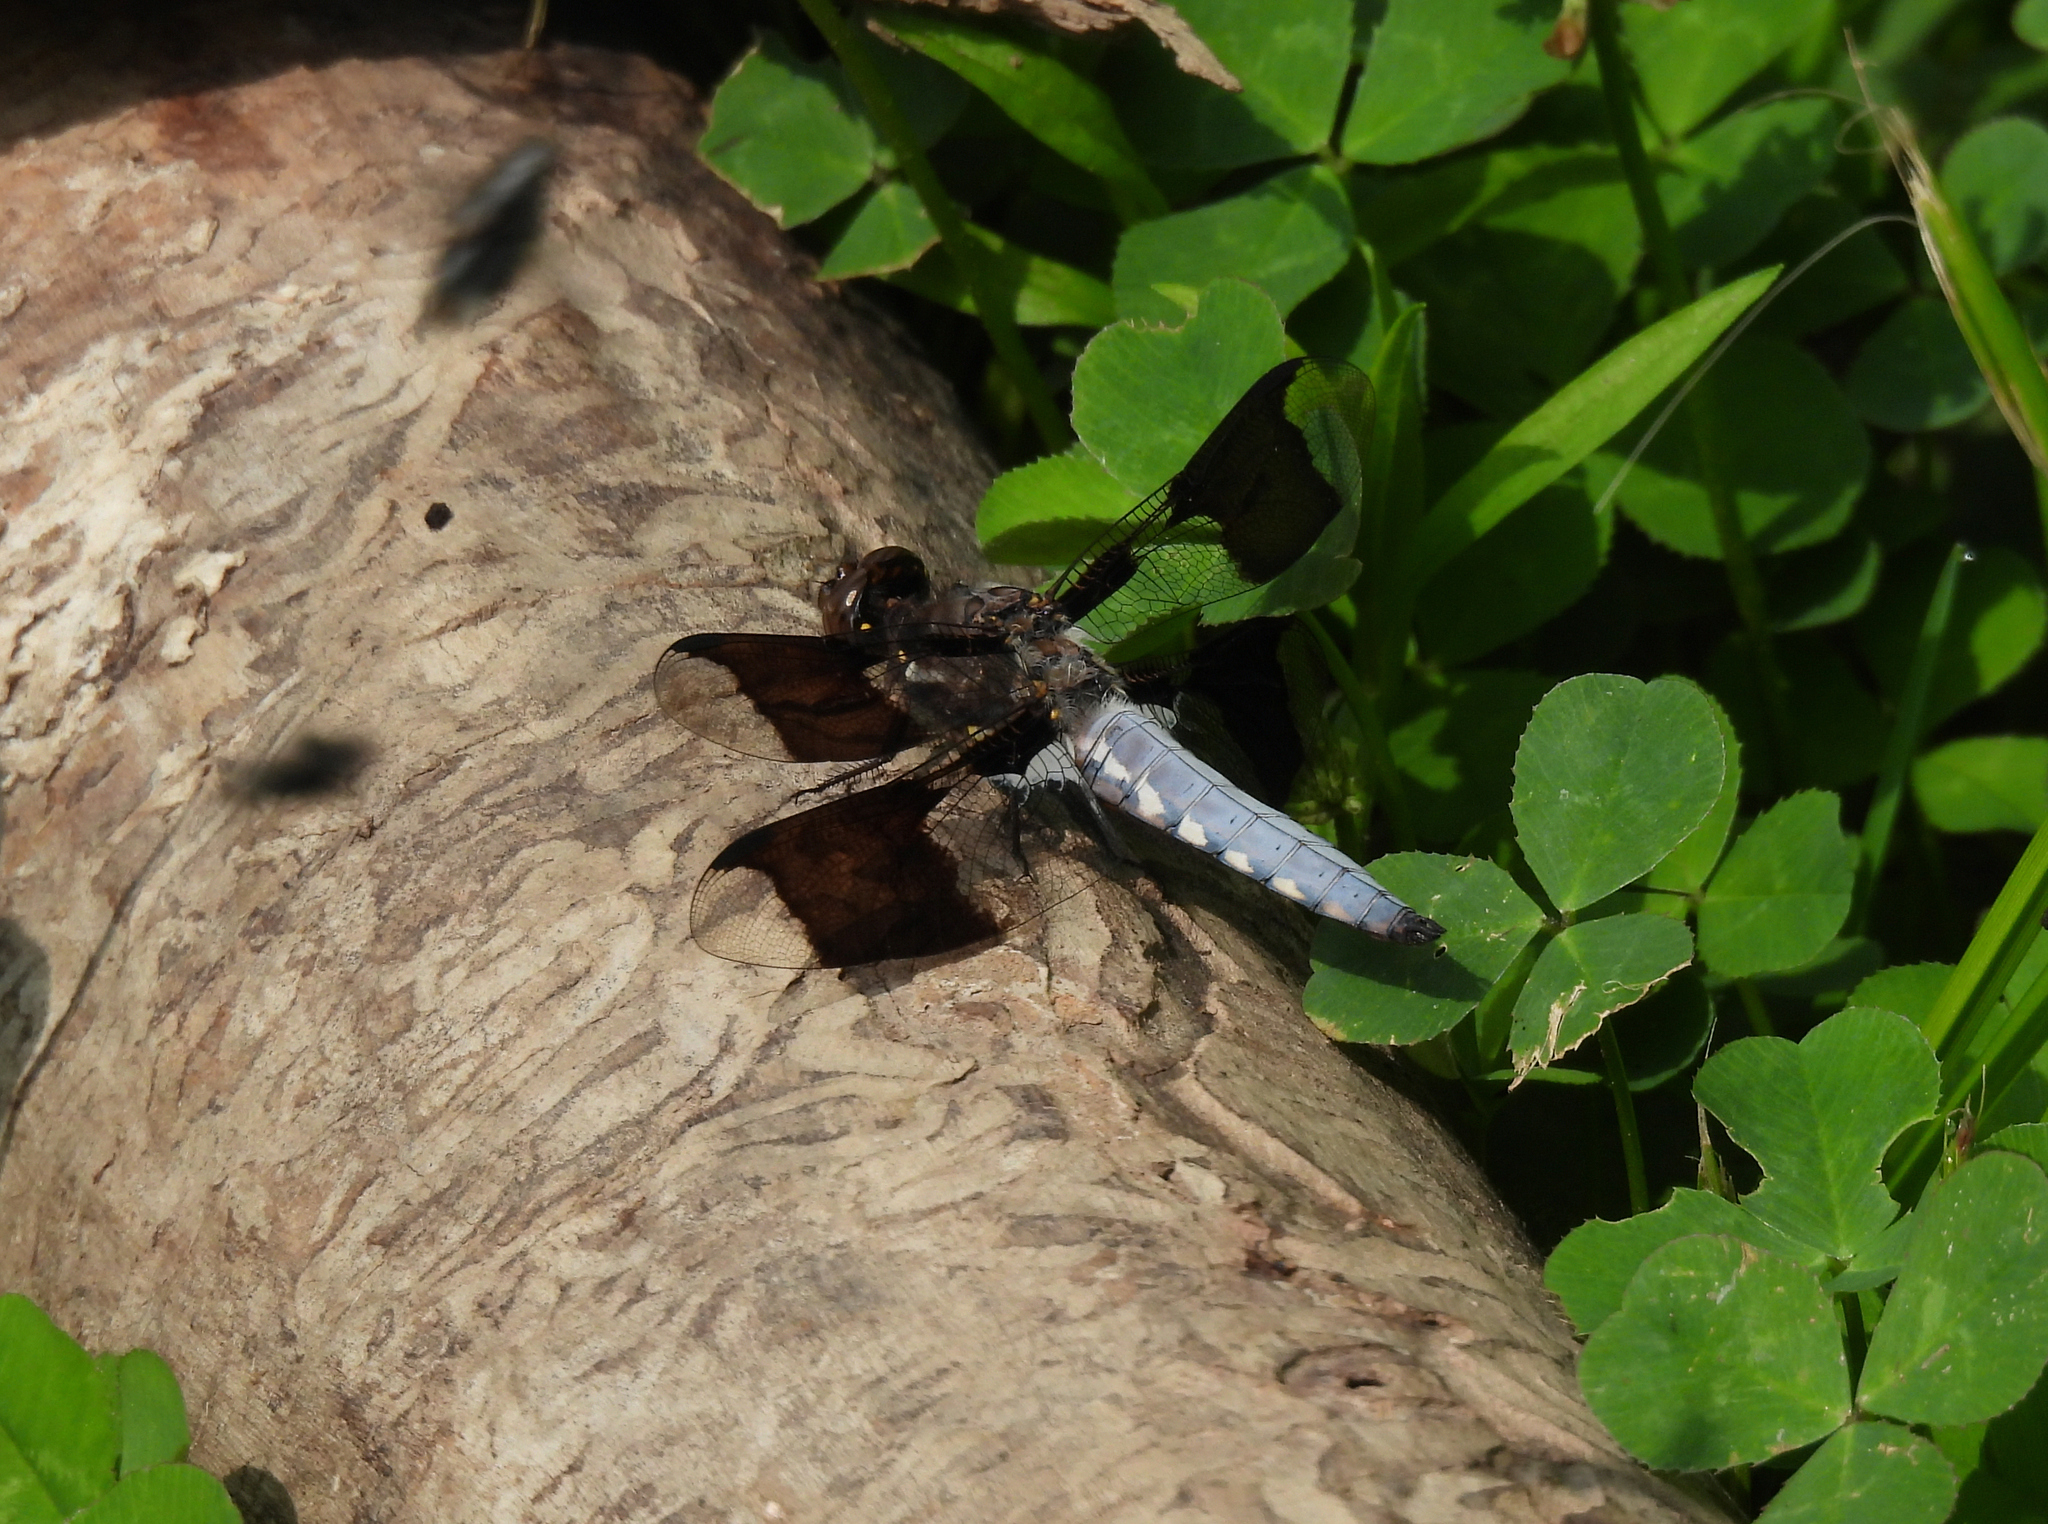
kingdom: Animalia
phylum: Arthropoda
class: Insecta
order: Odonata
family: Libellulidae
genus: Plathemis
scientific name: Plathemis lydia
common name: Common whitetail
